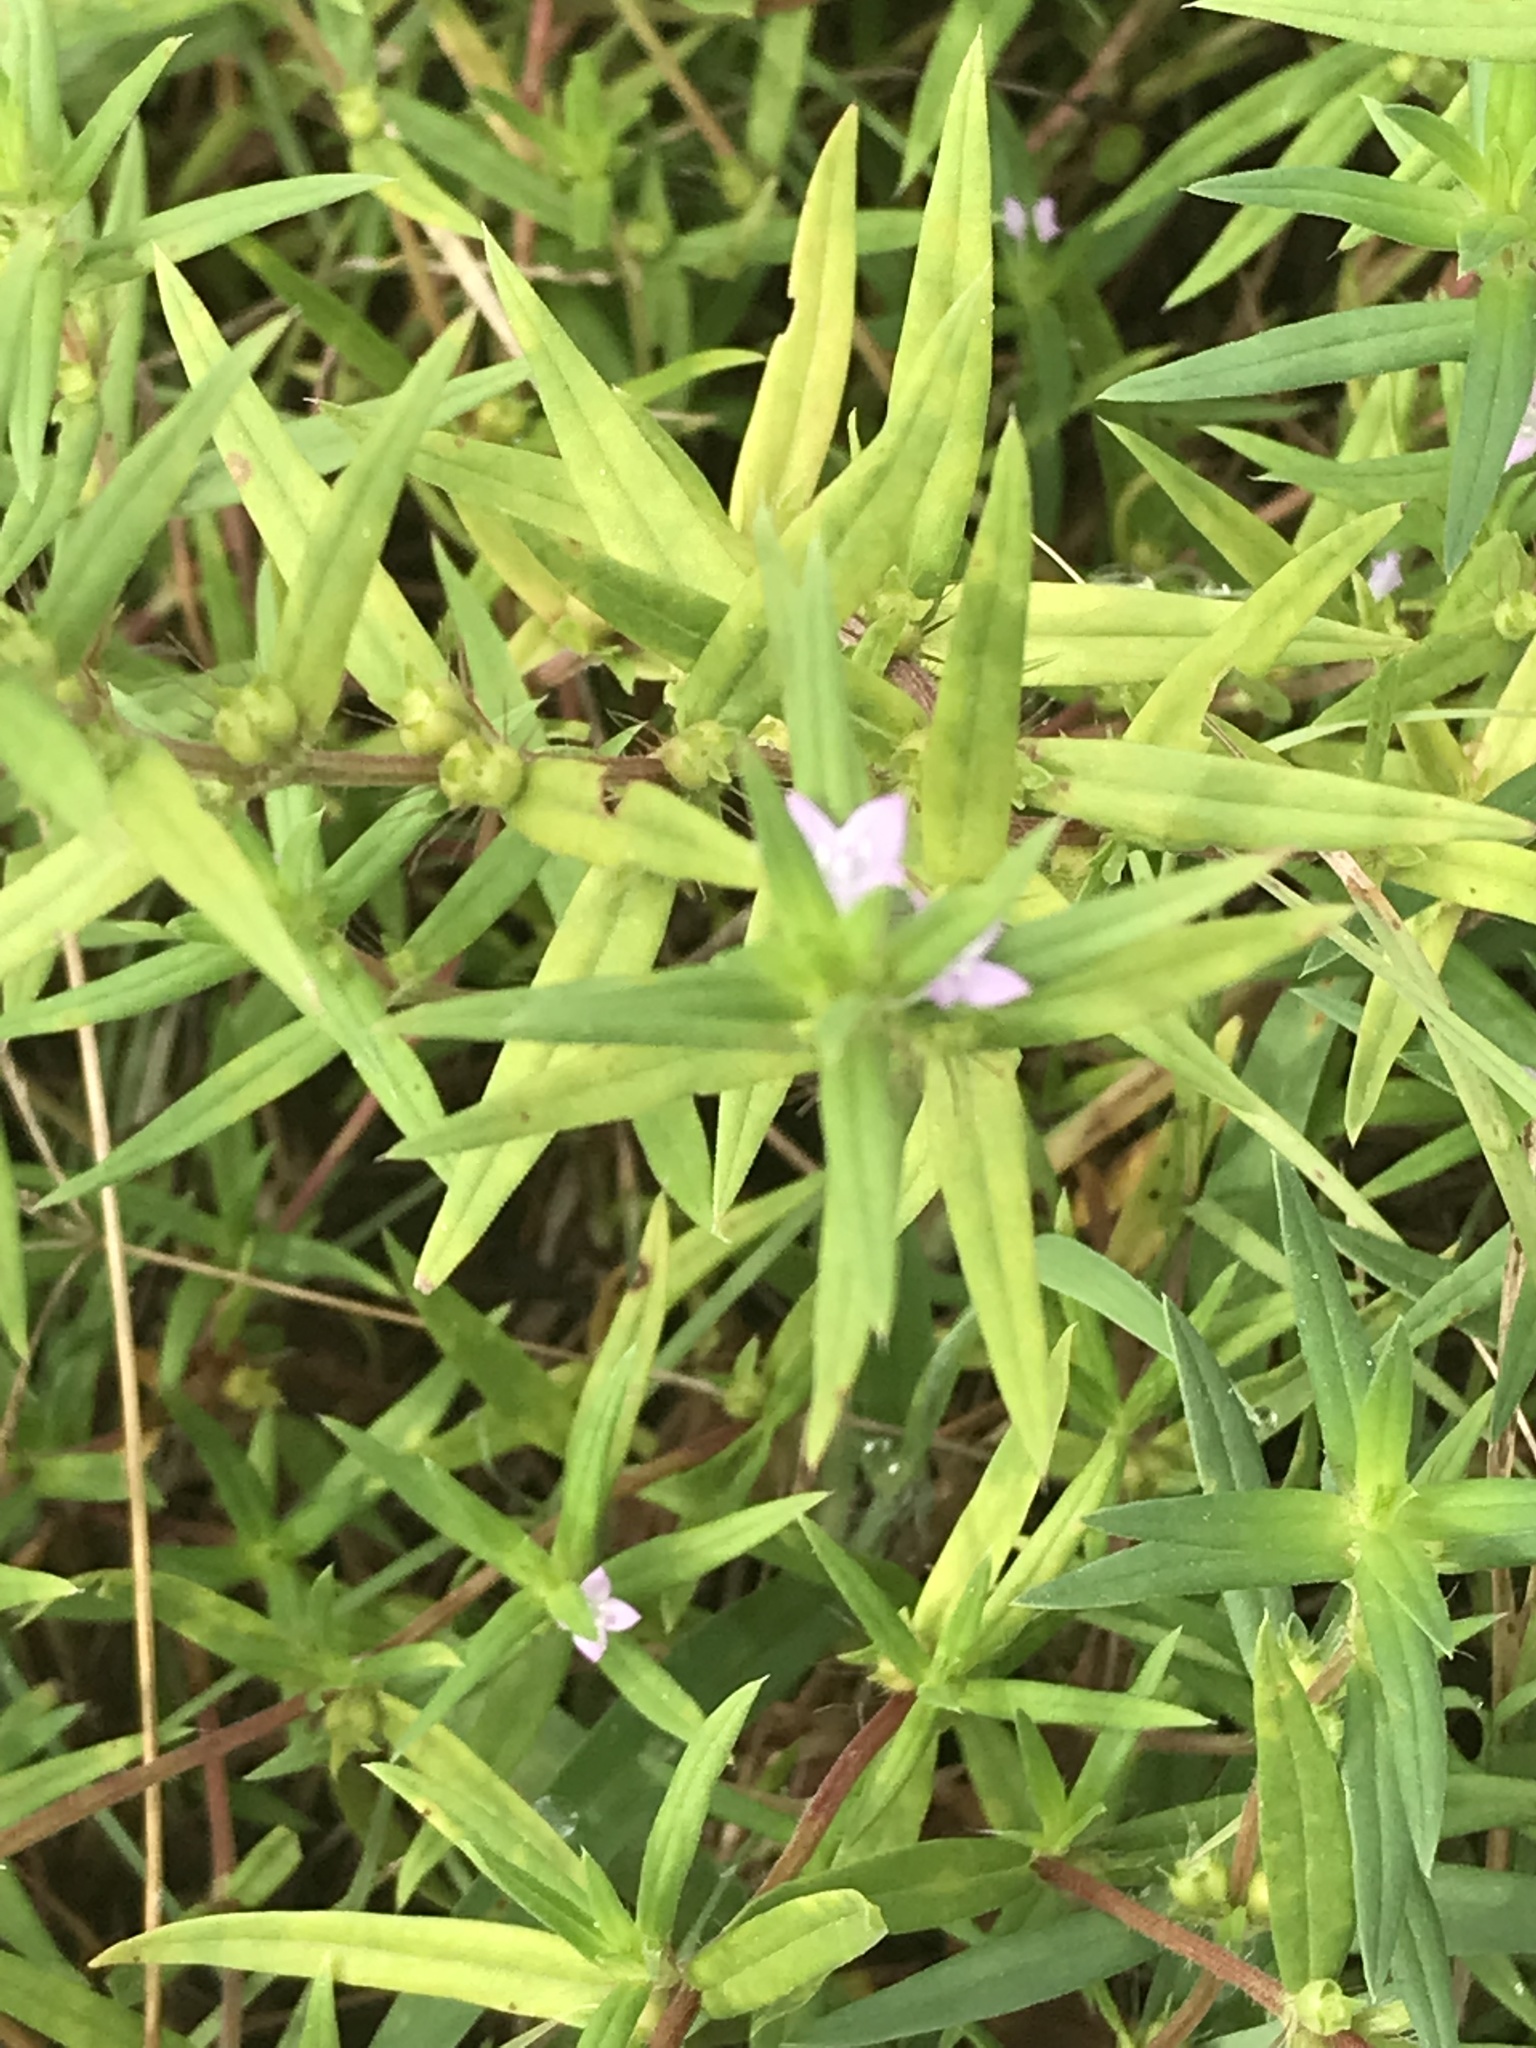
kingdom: Plantae
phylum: Tracheophyta
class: Magnoliopsida
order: Gentianales
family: Rubiaceae
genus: Hexasepalum
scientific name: Hexasepalum teres
